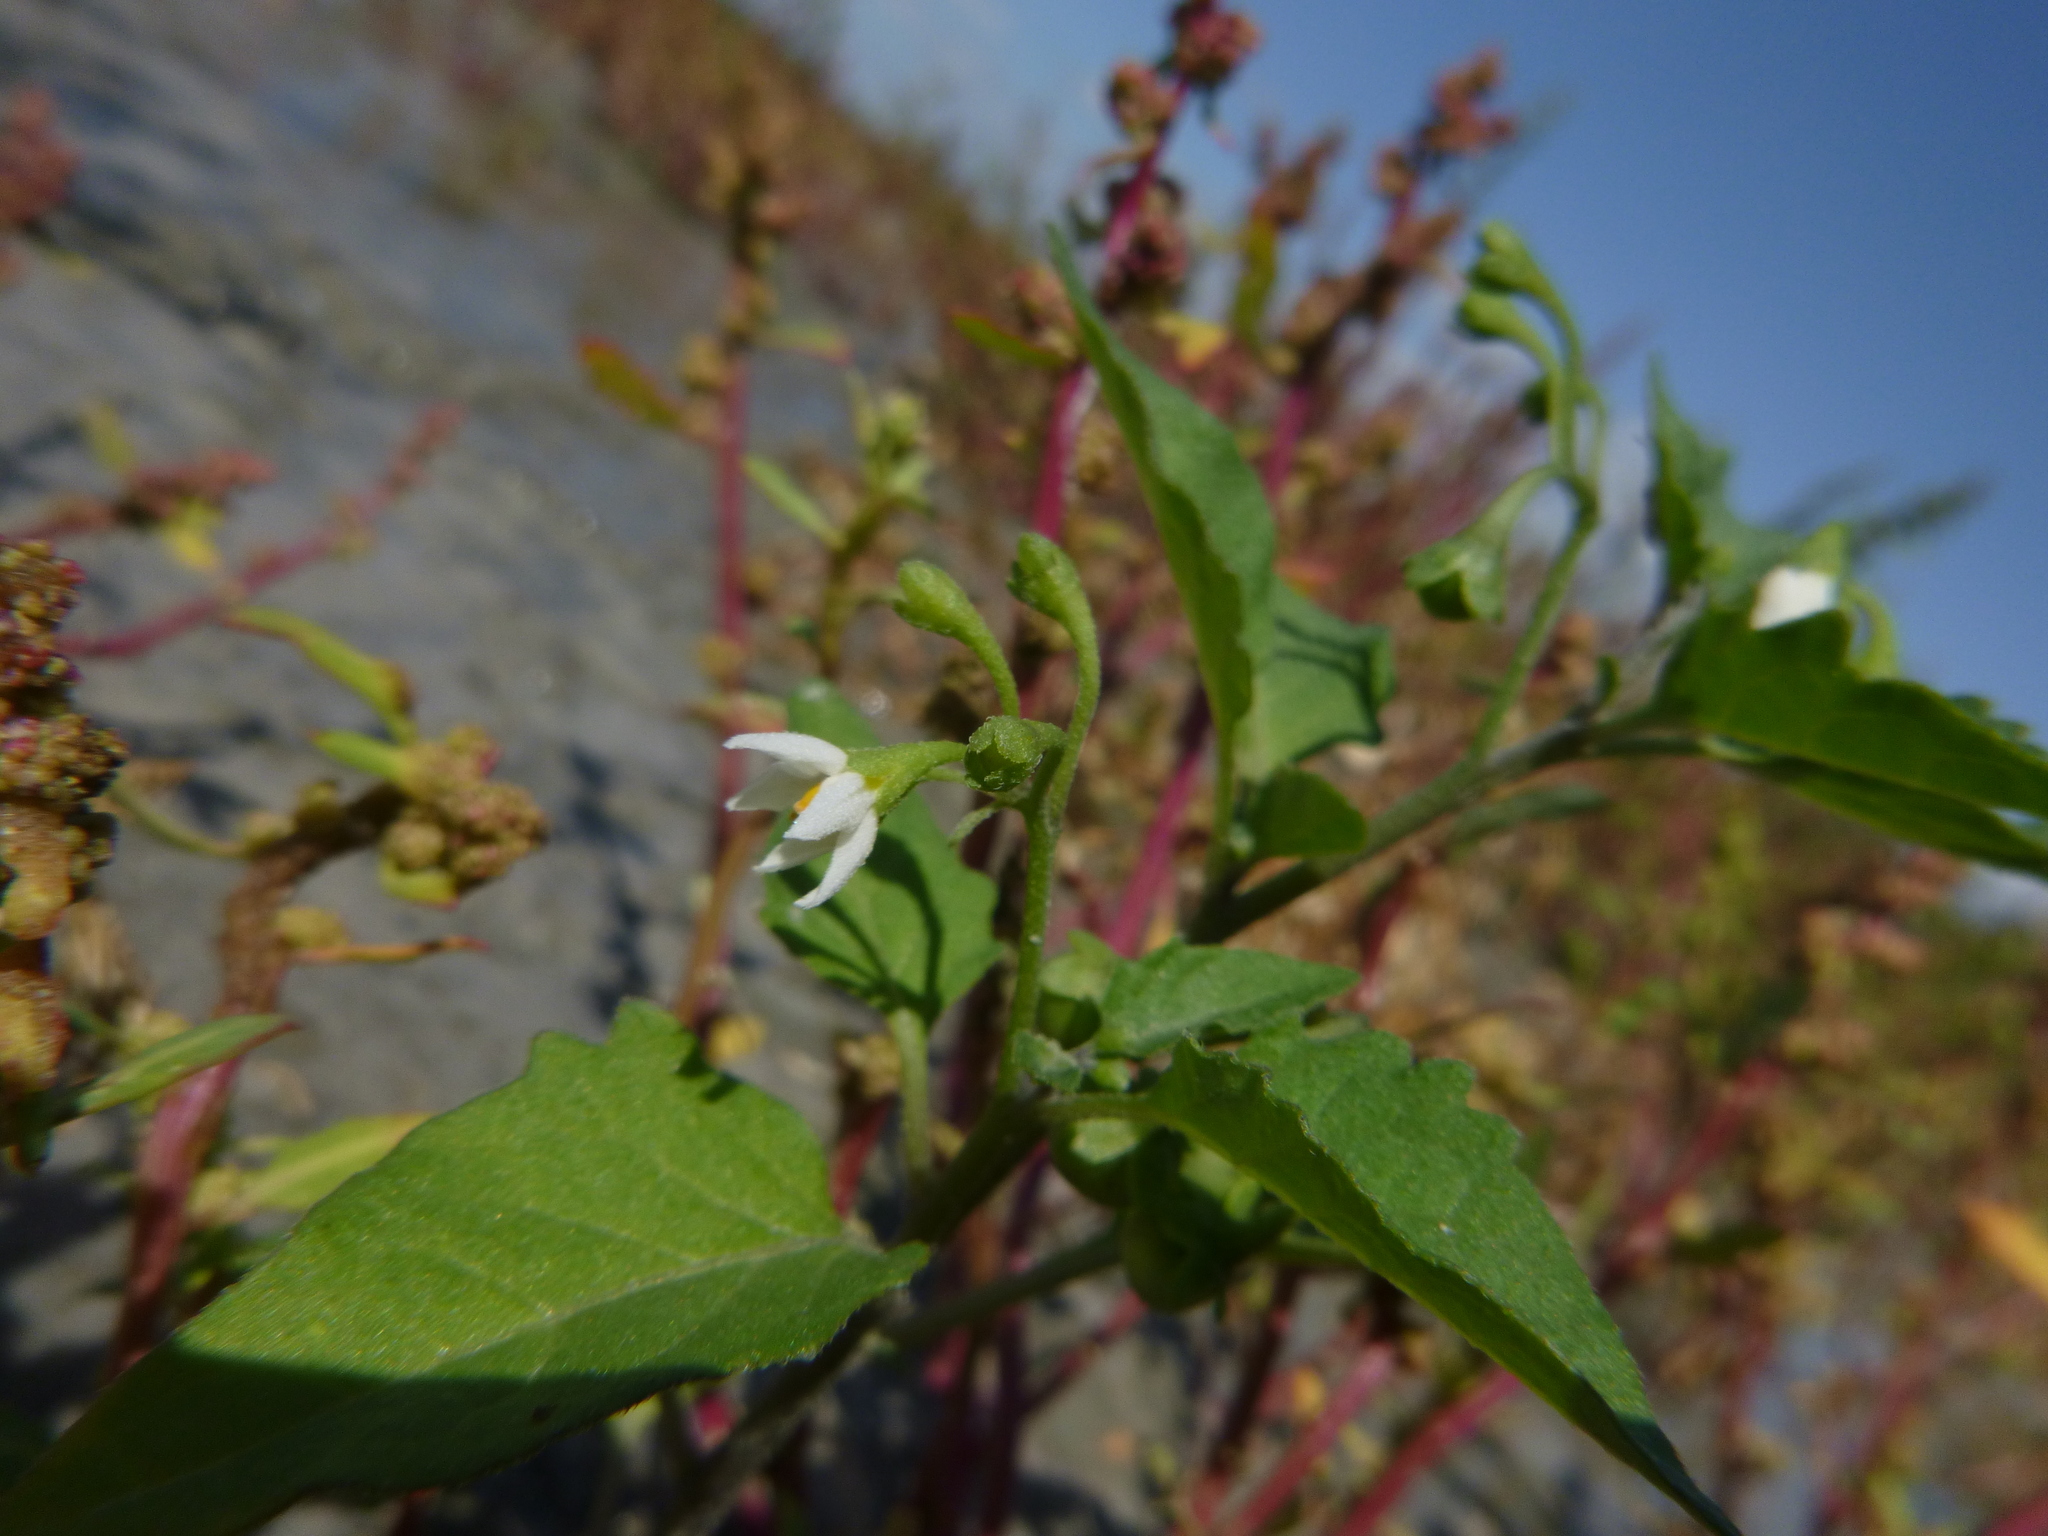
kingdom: Plantae
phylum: Tracheophyta
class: Magnoliopsida
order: Solanales
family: Solanaceae
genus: Solanum
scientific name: Solanum nigrum
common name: Black nightshade
